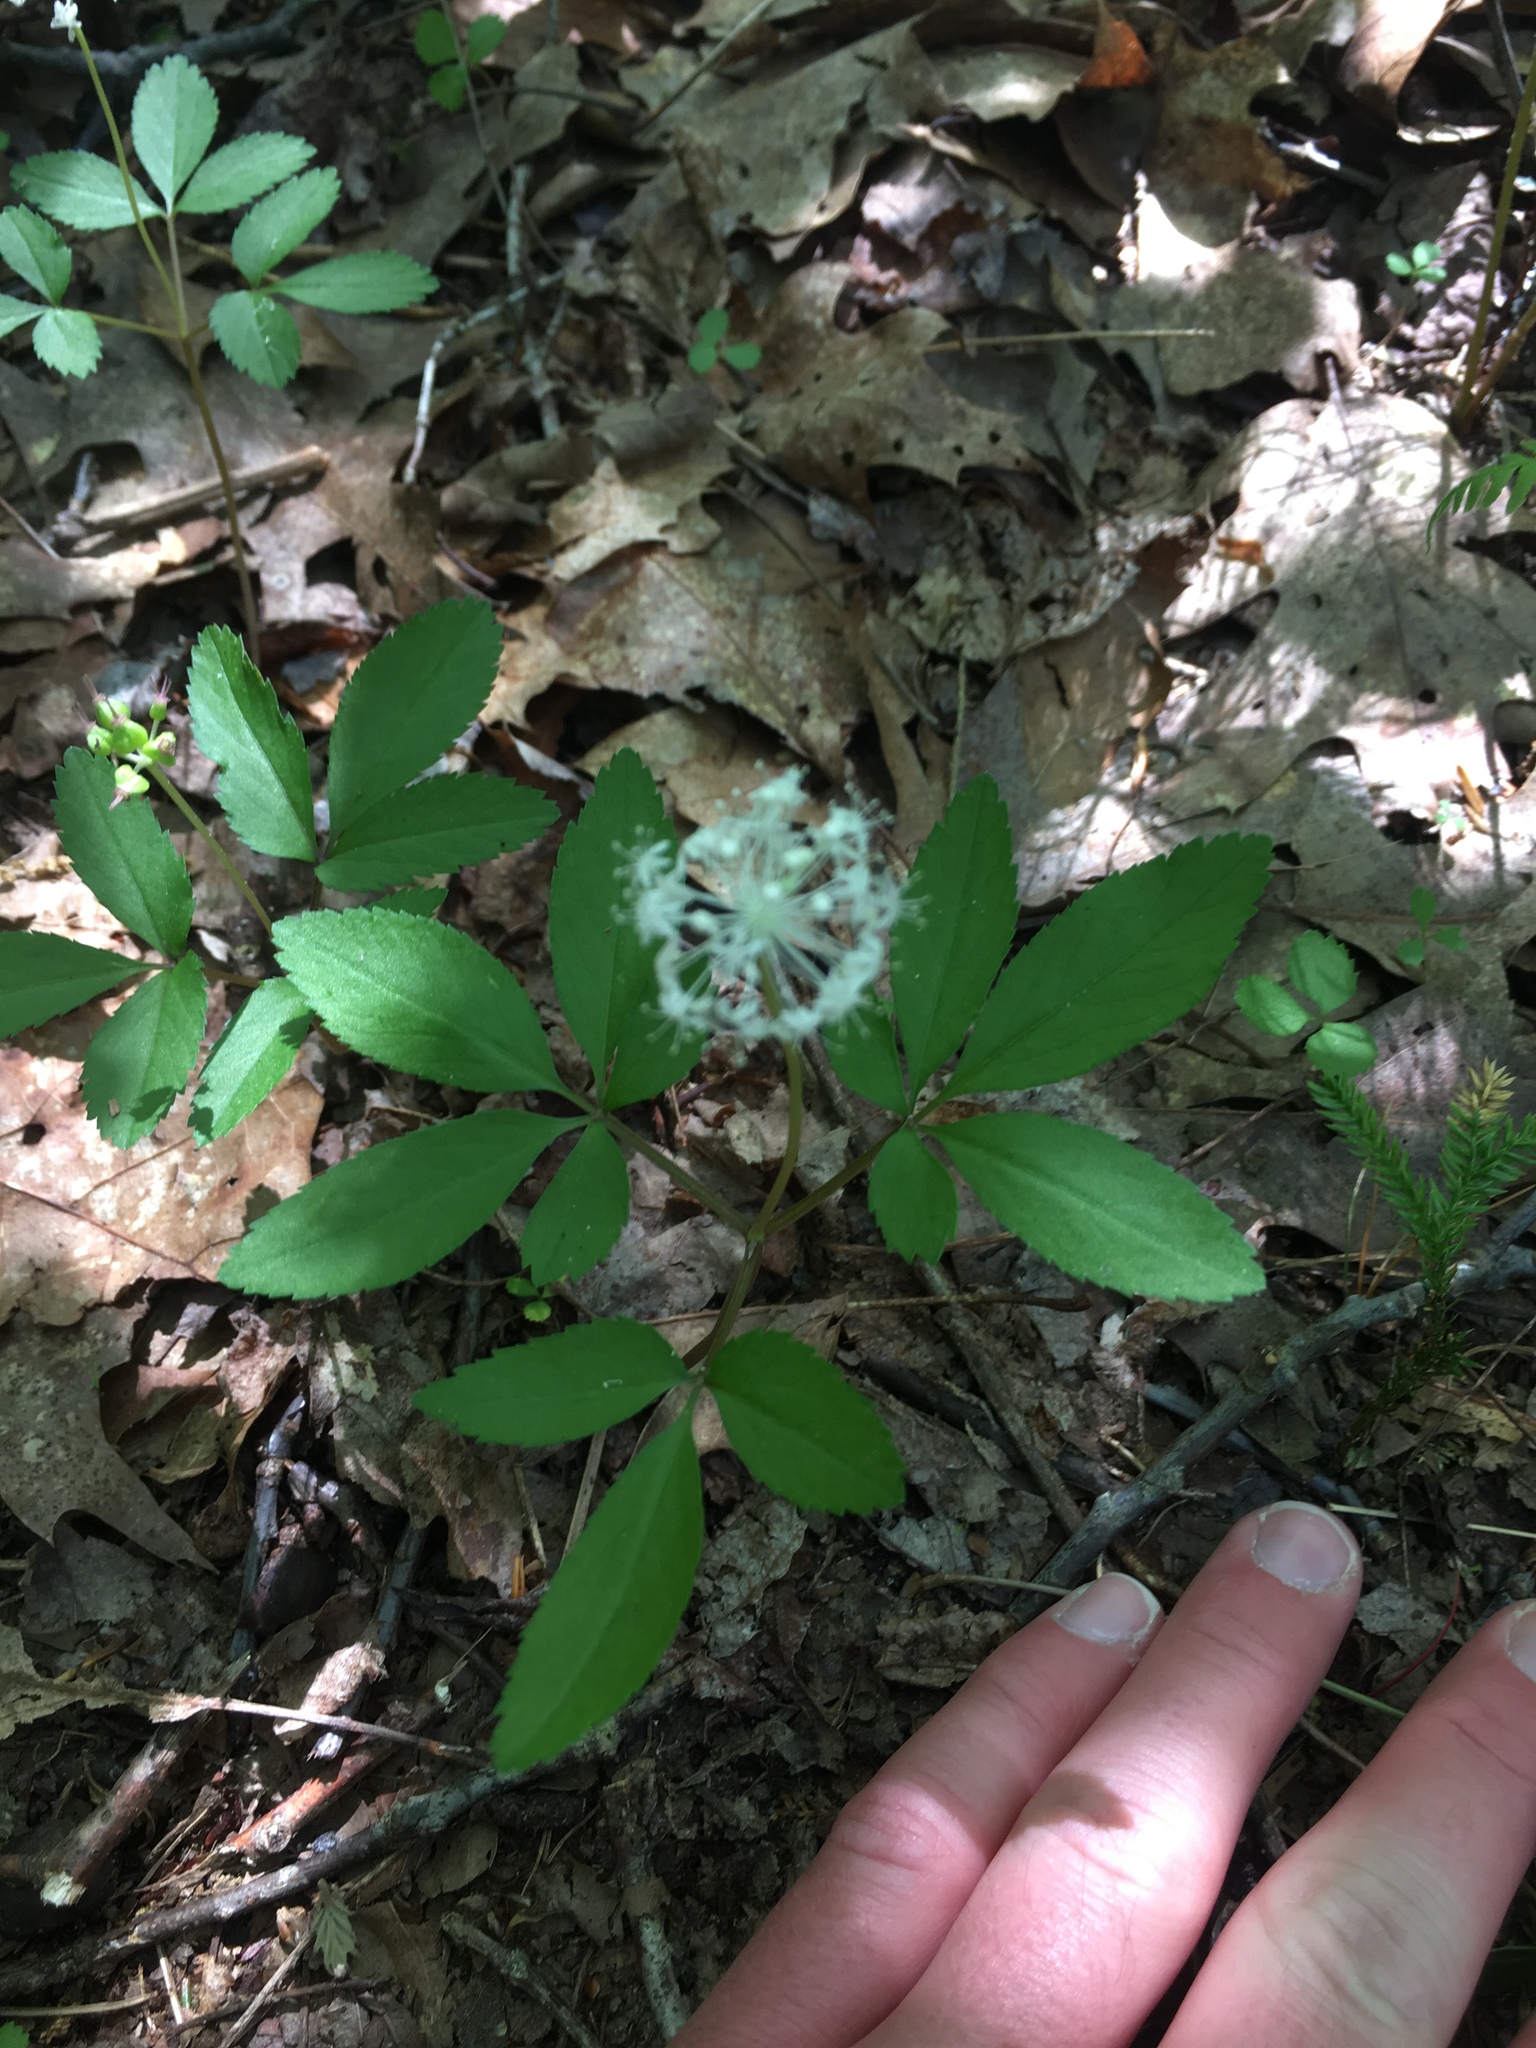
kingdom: Plantae
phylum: Tracheophyta
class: Magnoliopsida
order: Apiales
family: Araliaceae
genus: Panax
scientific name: Panax trifolius
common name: Dwarf ginseng
